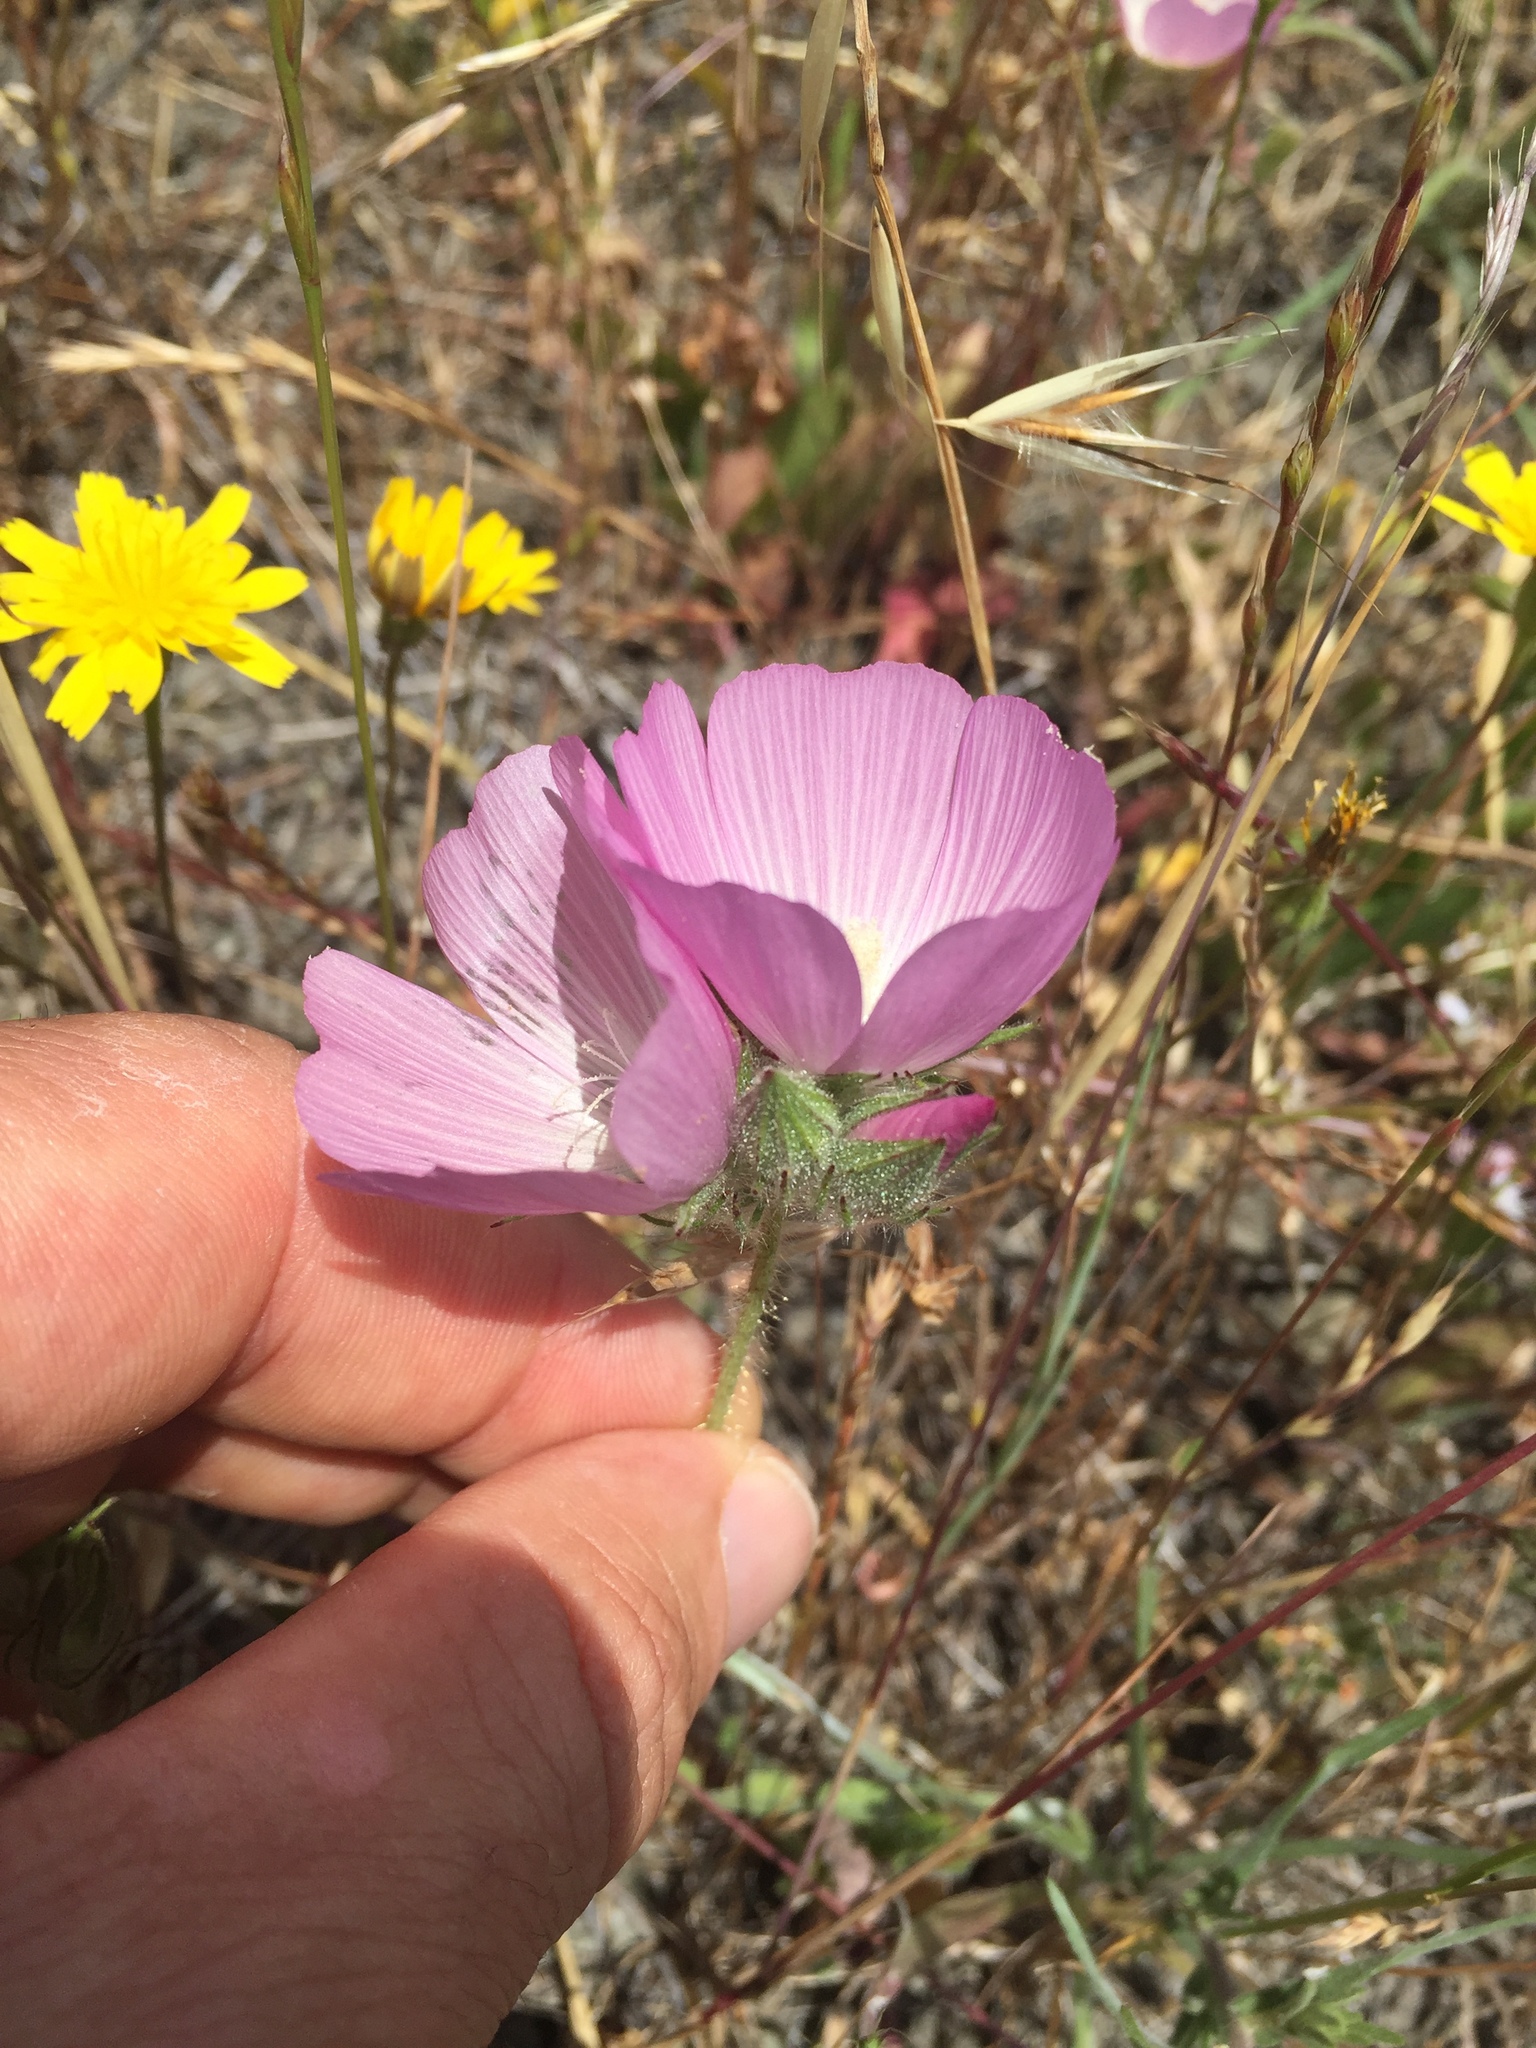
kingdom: Plantae
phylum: Tracheophyta
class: Magnoliopsida
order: Malvales
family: Malvaceae
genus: Sidalcea
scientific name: Sidalcea diploscypha
